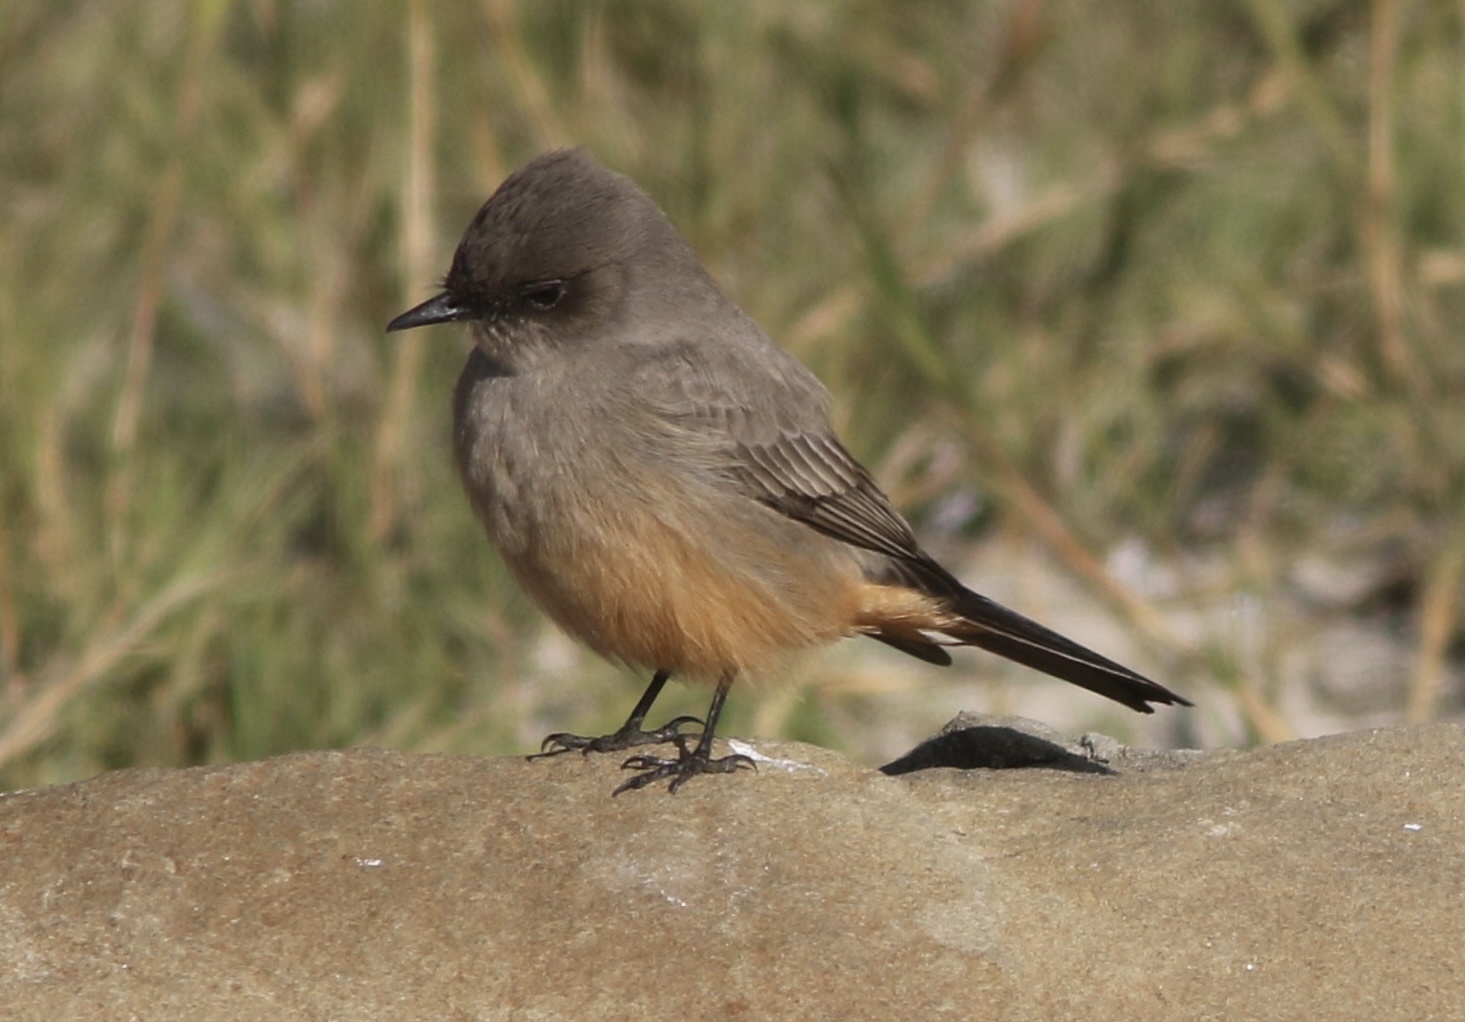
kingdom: Animalia
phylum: Chordata
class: Aves
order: Passeriformes
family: Tyrannidae
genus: Sayornis
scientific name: Sayornis saya
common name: Say's phoebe
